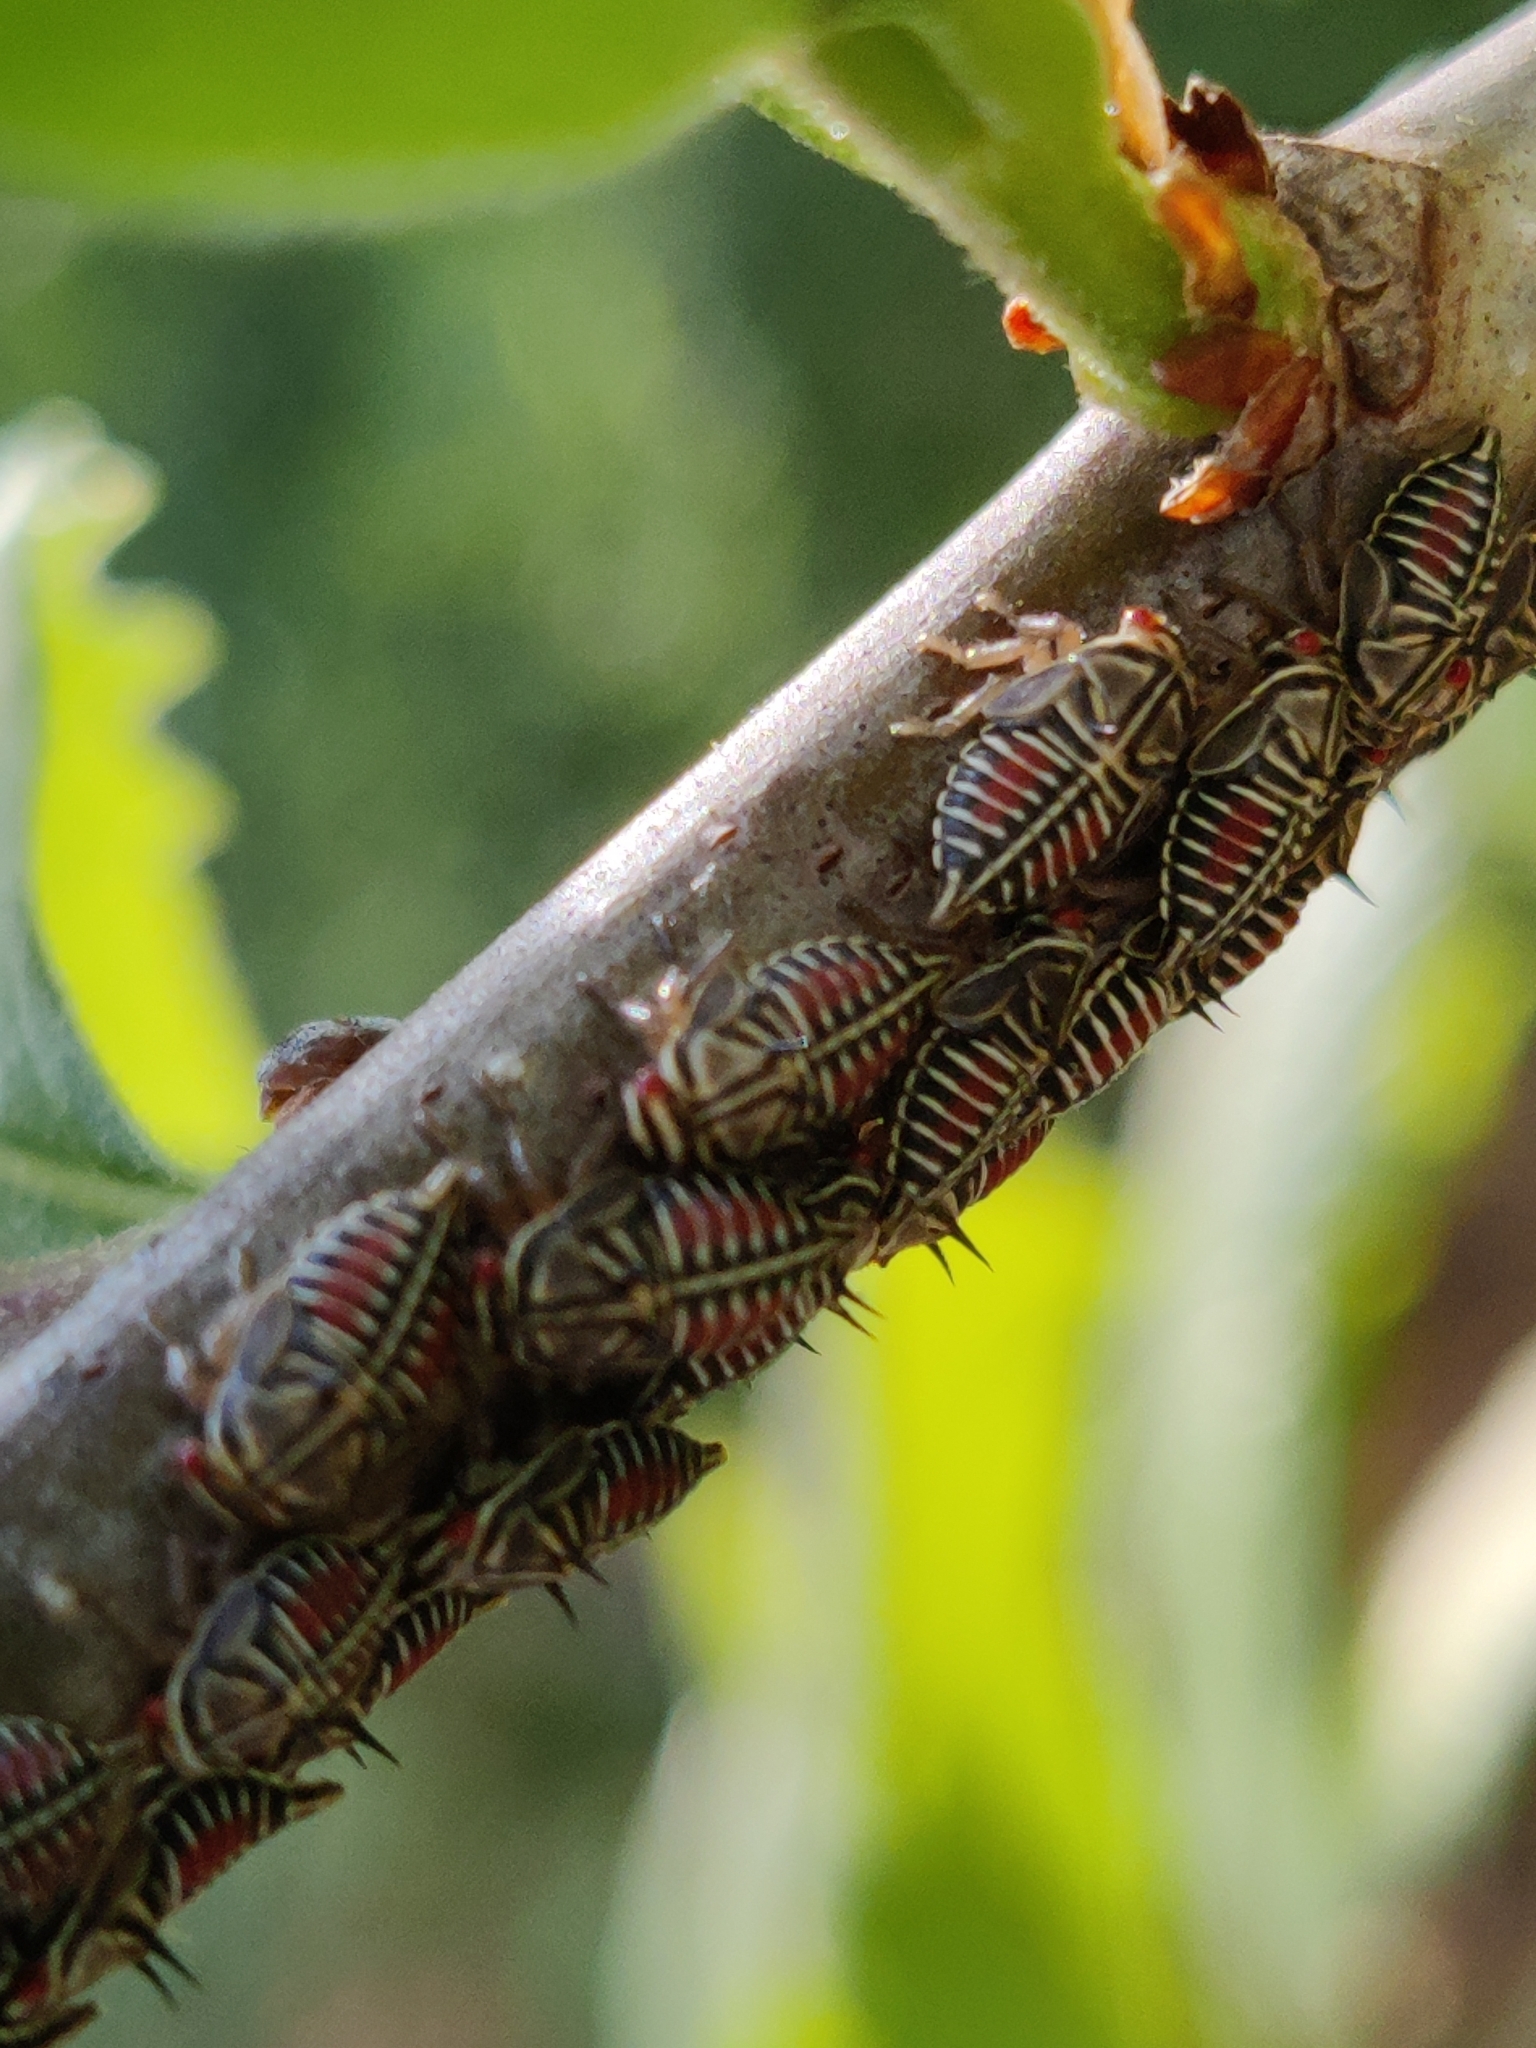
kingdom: Animalia
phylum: Arthropoda
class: Insecta
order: Hemiptera
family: Membracidae
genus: Platycotis
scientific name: Platycotis vittatus
